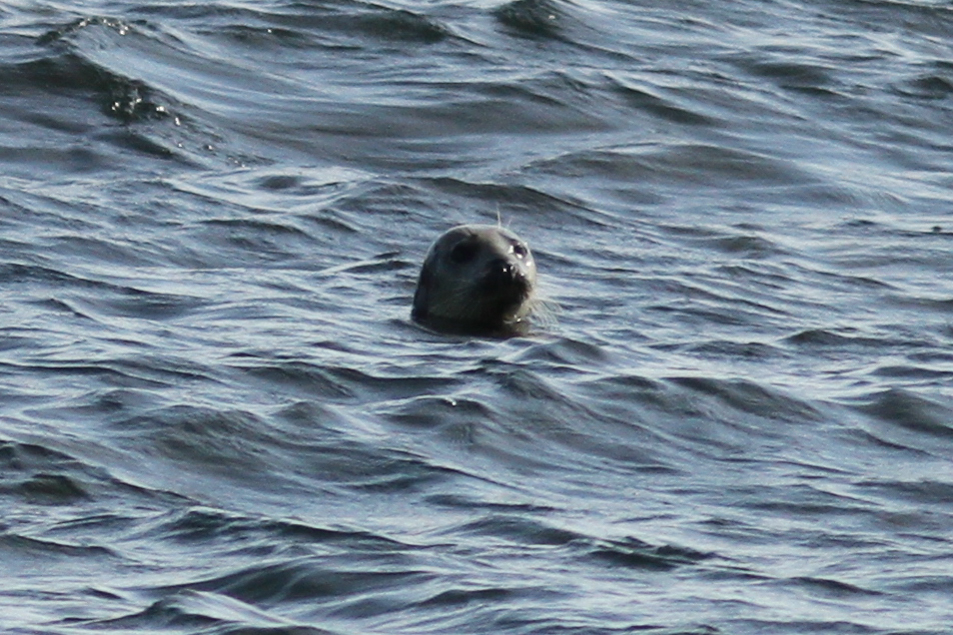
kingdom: Animalia
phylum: Chordata
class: Mammalia
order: Carnivora
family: Phocidae
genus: Halichoerus
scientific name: Halichoerus grypus
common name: Grey seal
